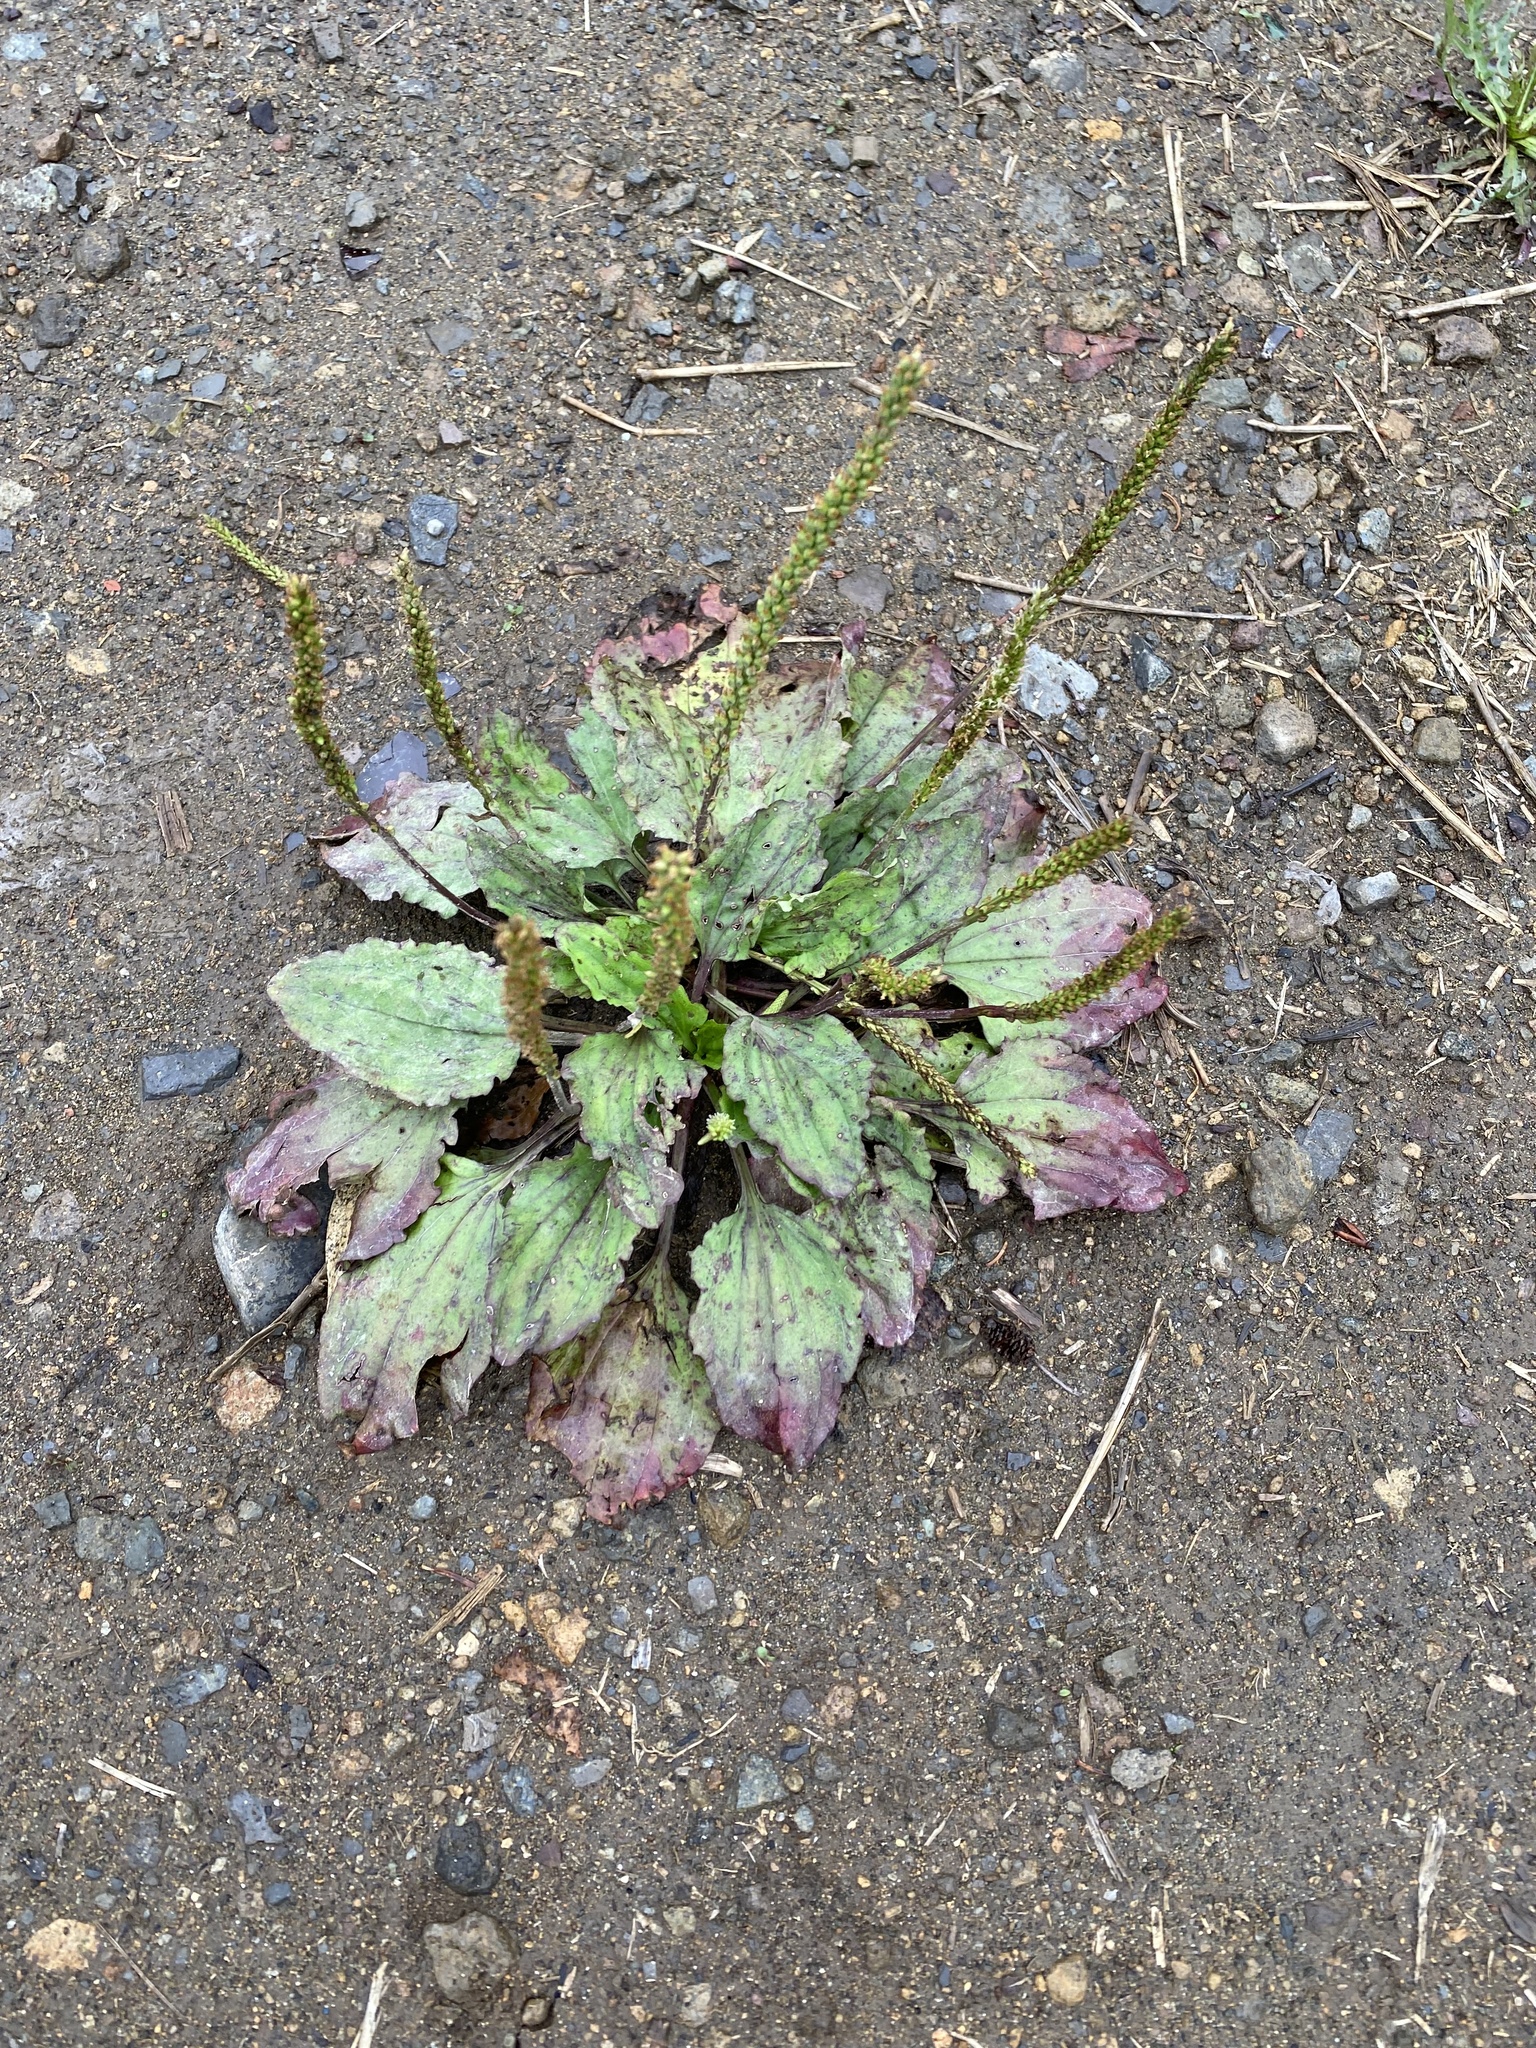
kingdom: Plantae
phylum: Tracheophyta
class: Magnoliopsida
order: Lamiales
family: Plantaginaceae
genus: Plantago
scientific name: Plantago major
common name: Common plantain
